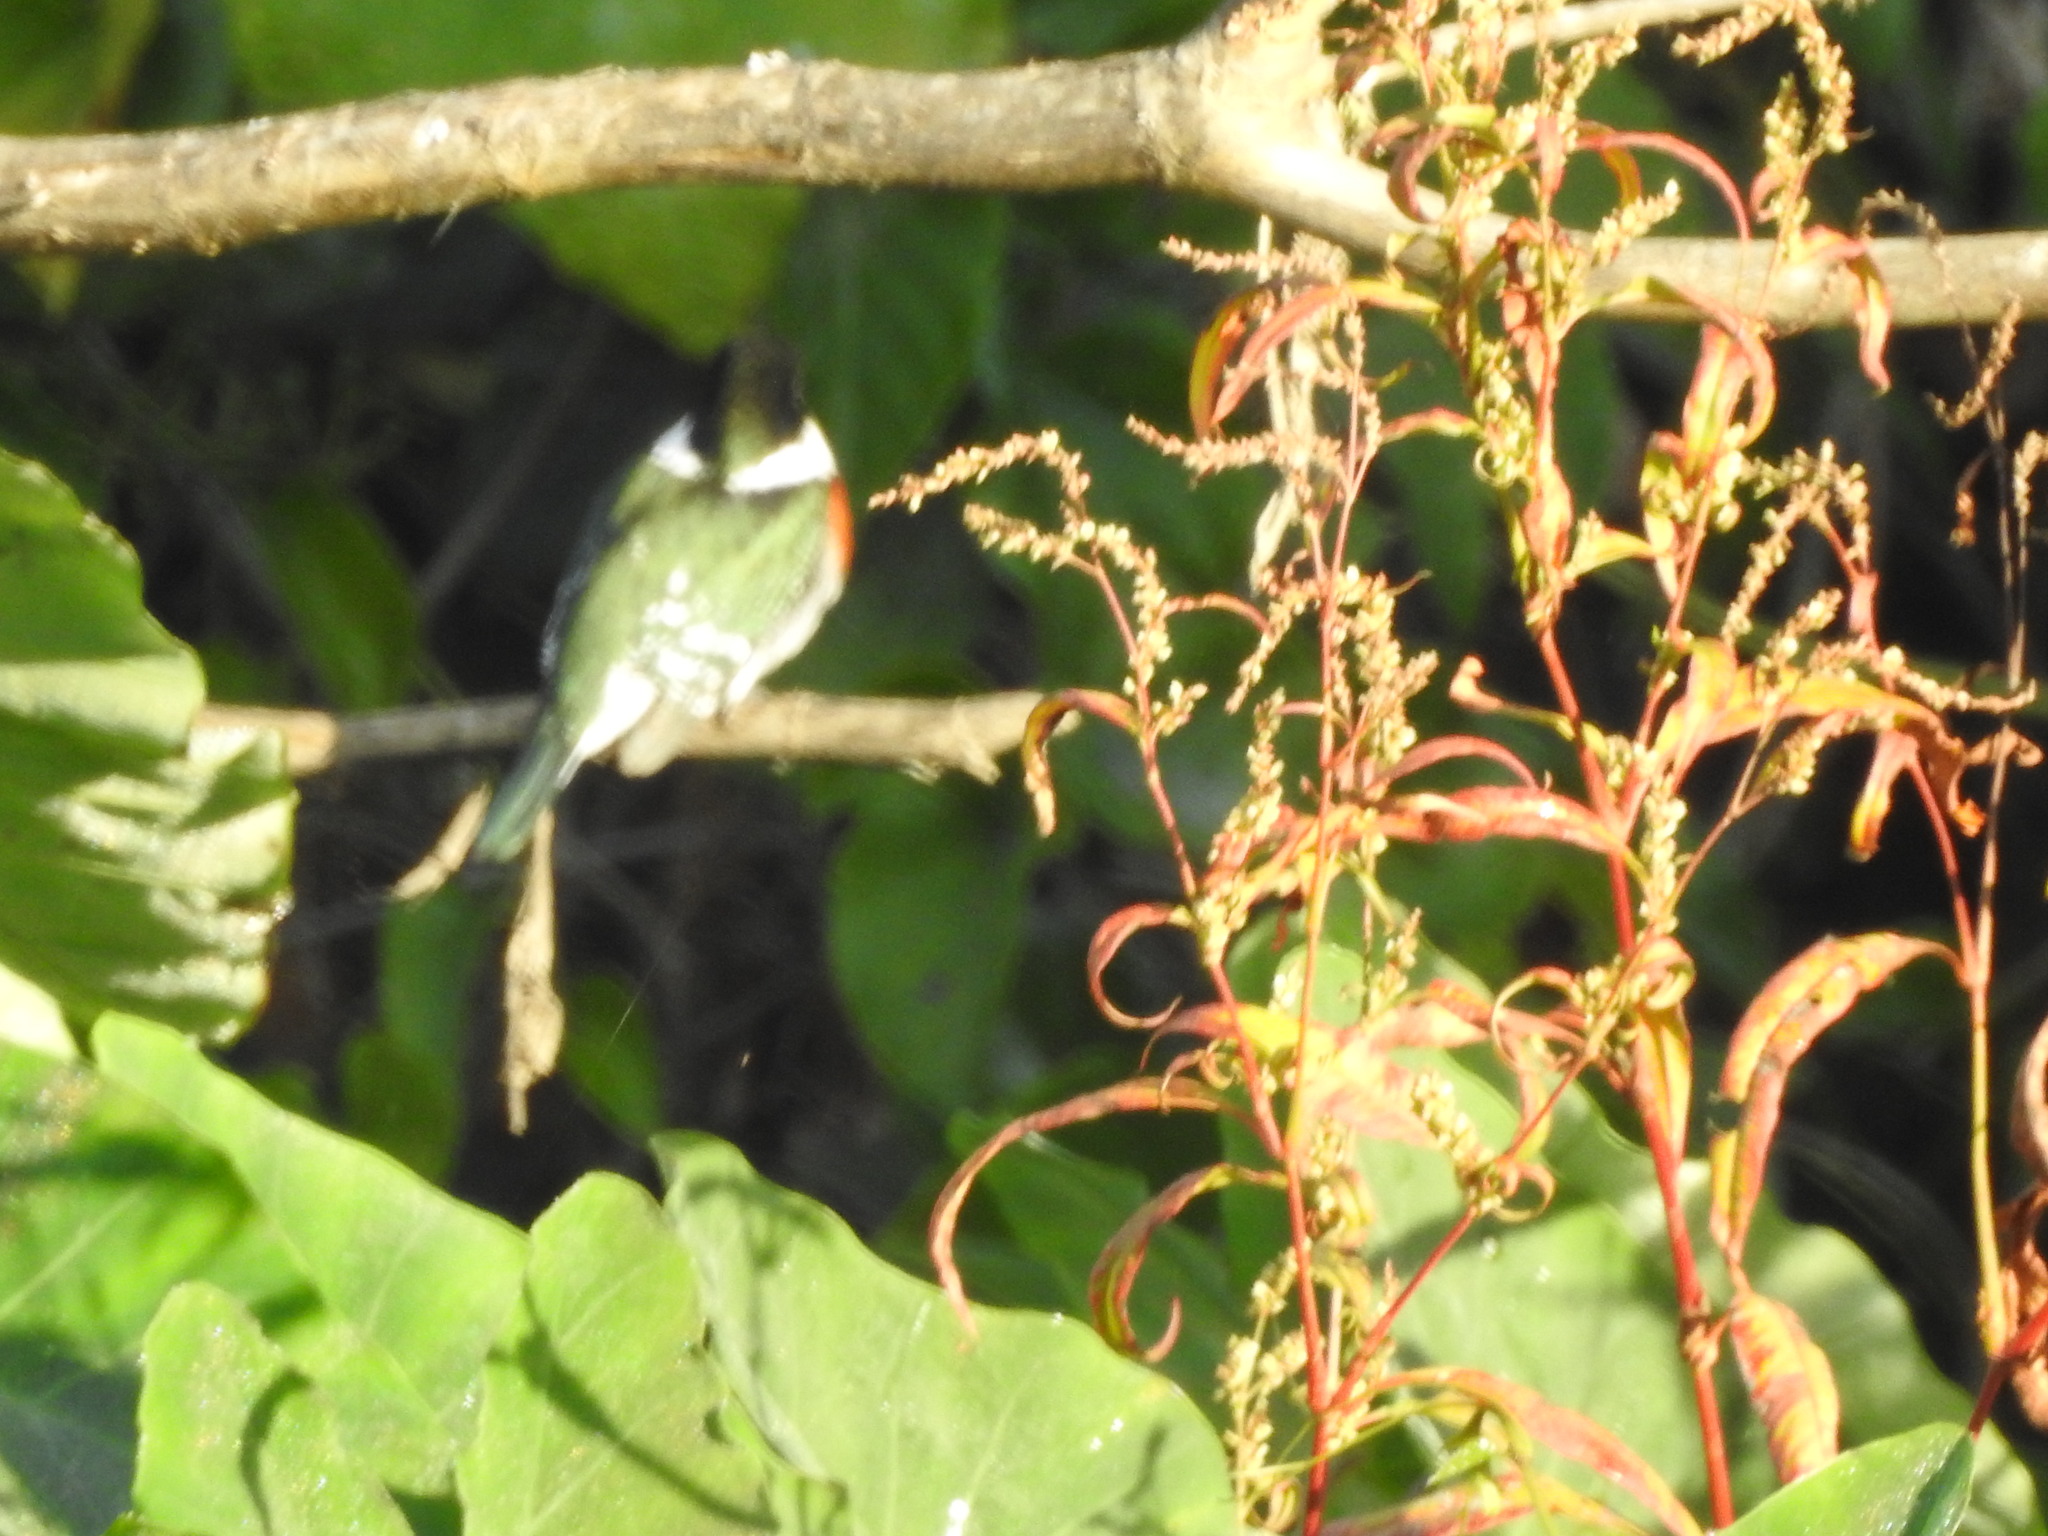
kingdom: Animalia
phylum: Chordata
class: Aves
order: Coraciiformes
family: Alcedinidae
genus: Chloroceryle
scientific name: Chloroceryle americana
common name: Green kingfisher
